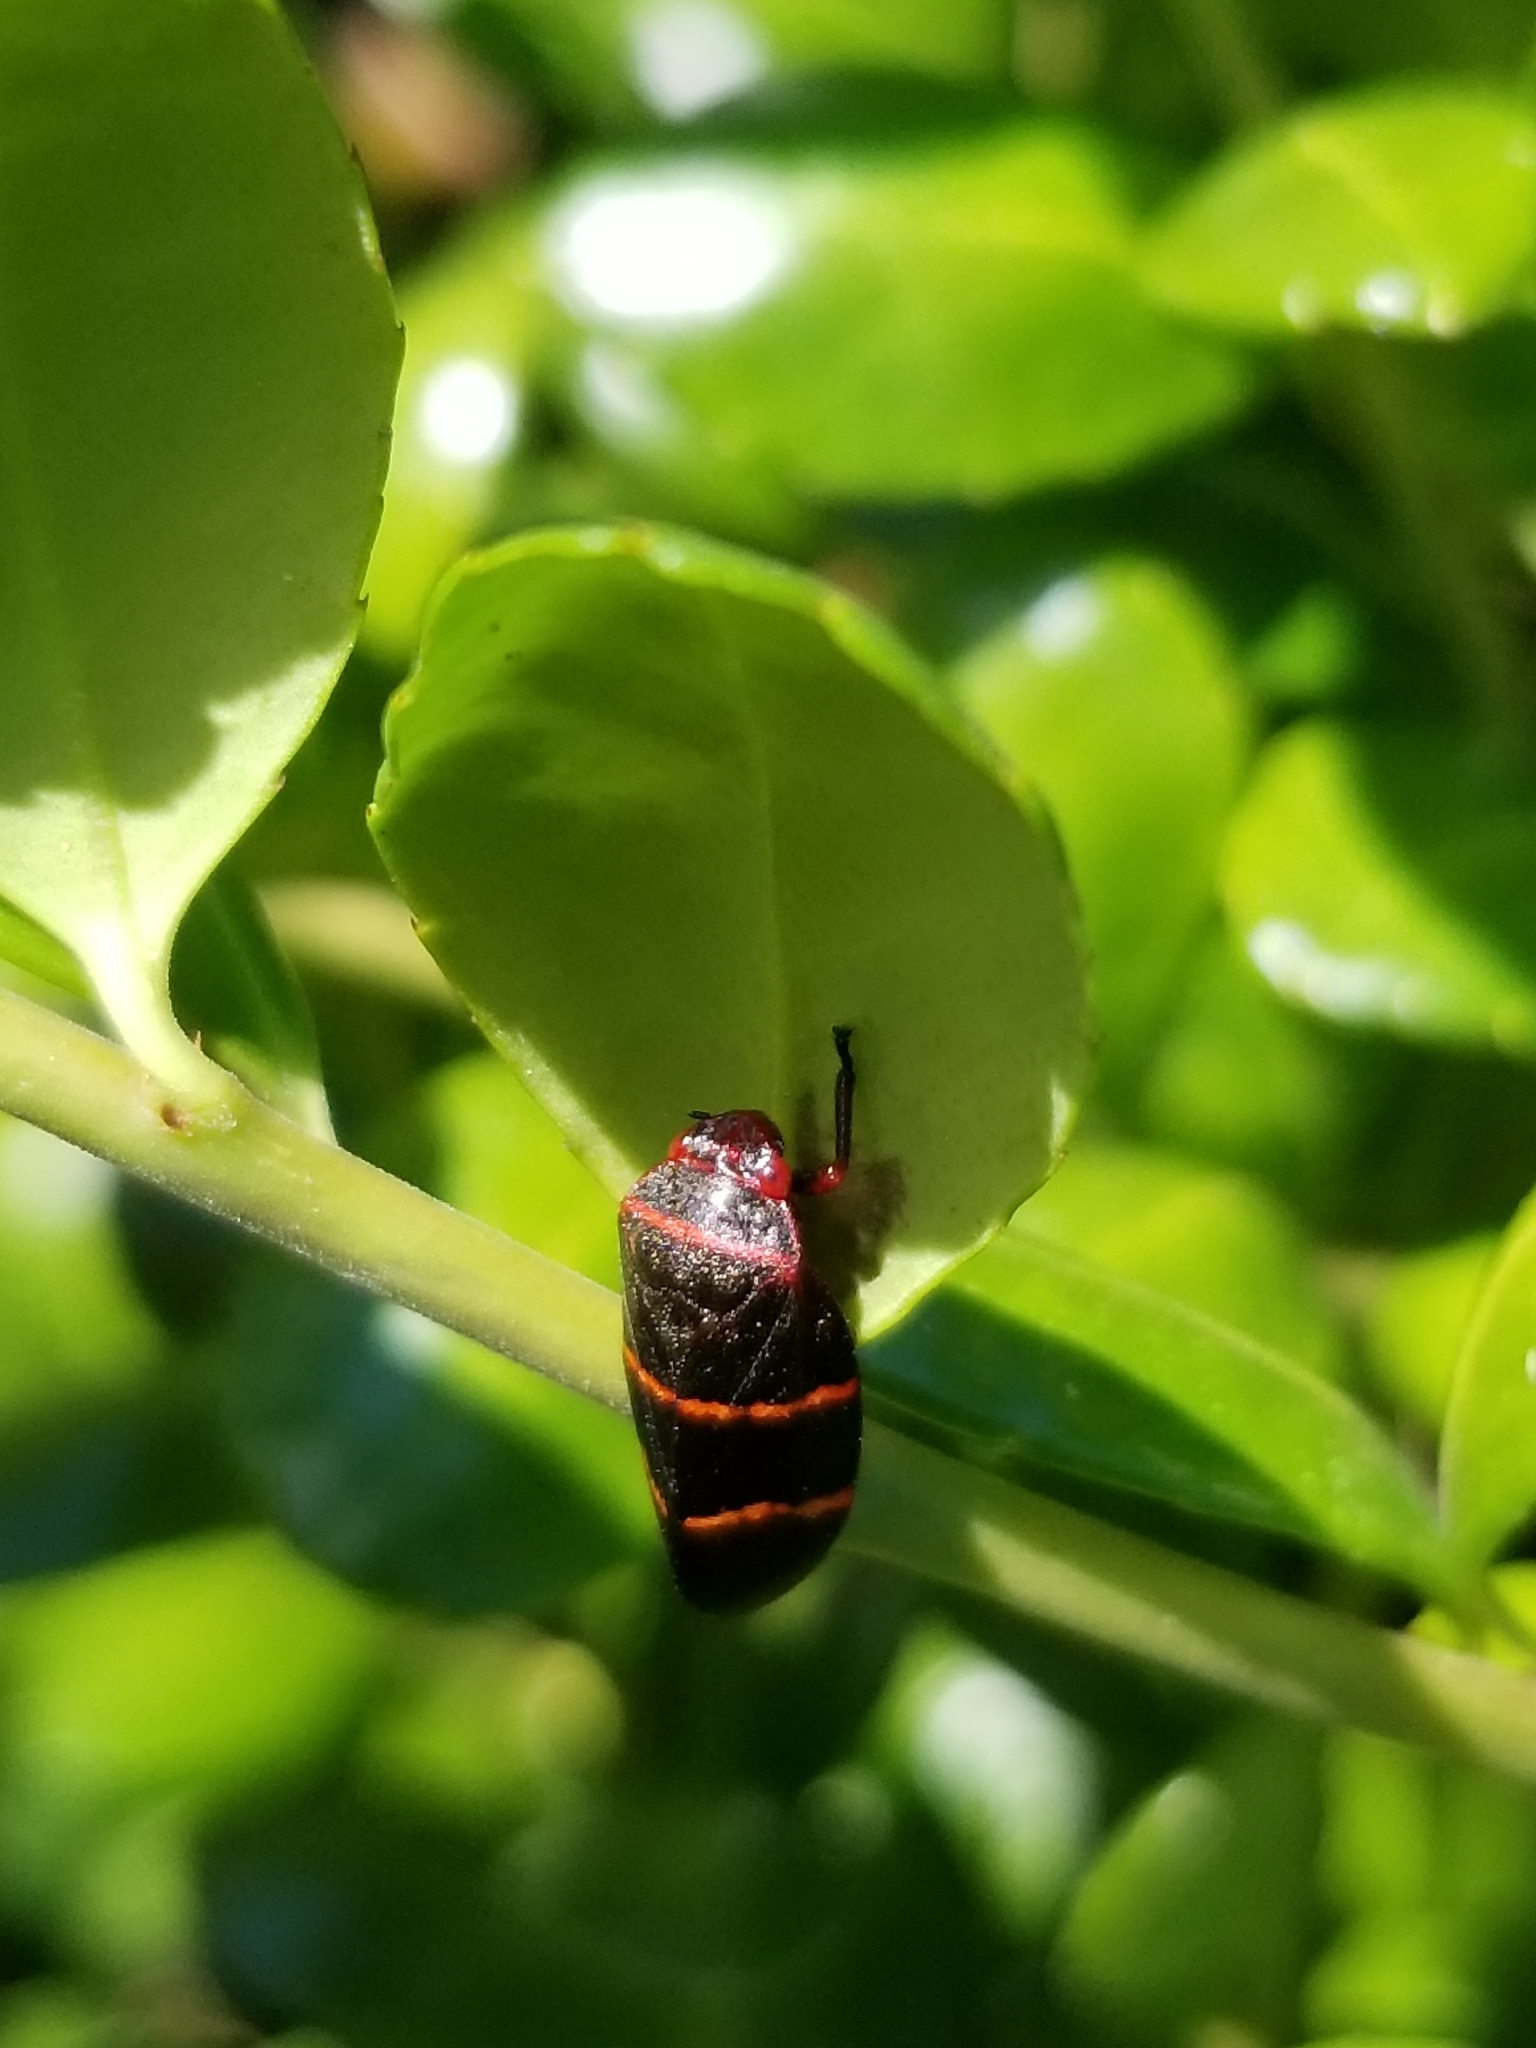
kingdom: Animalia
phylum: Arthropoda
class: Insecta
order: Hemiptera
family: Cercopidae
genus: Prosapia
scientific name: Prosapia bicincta
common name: Twolined spittlebug
